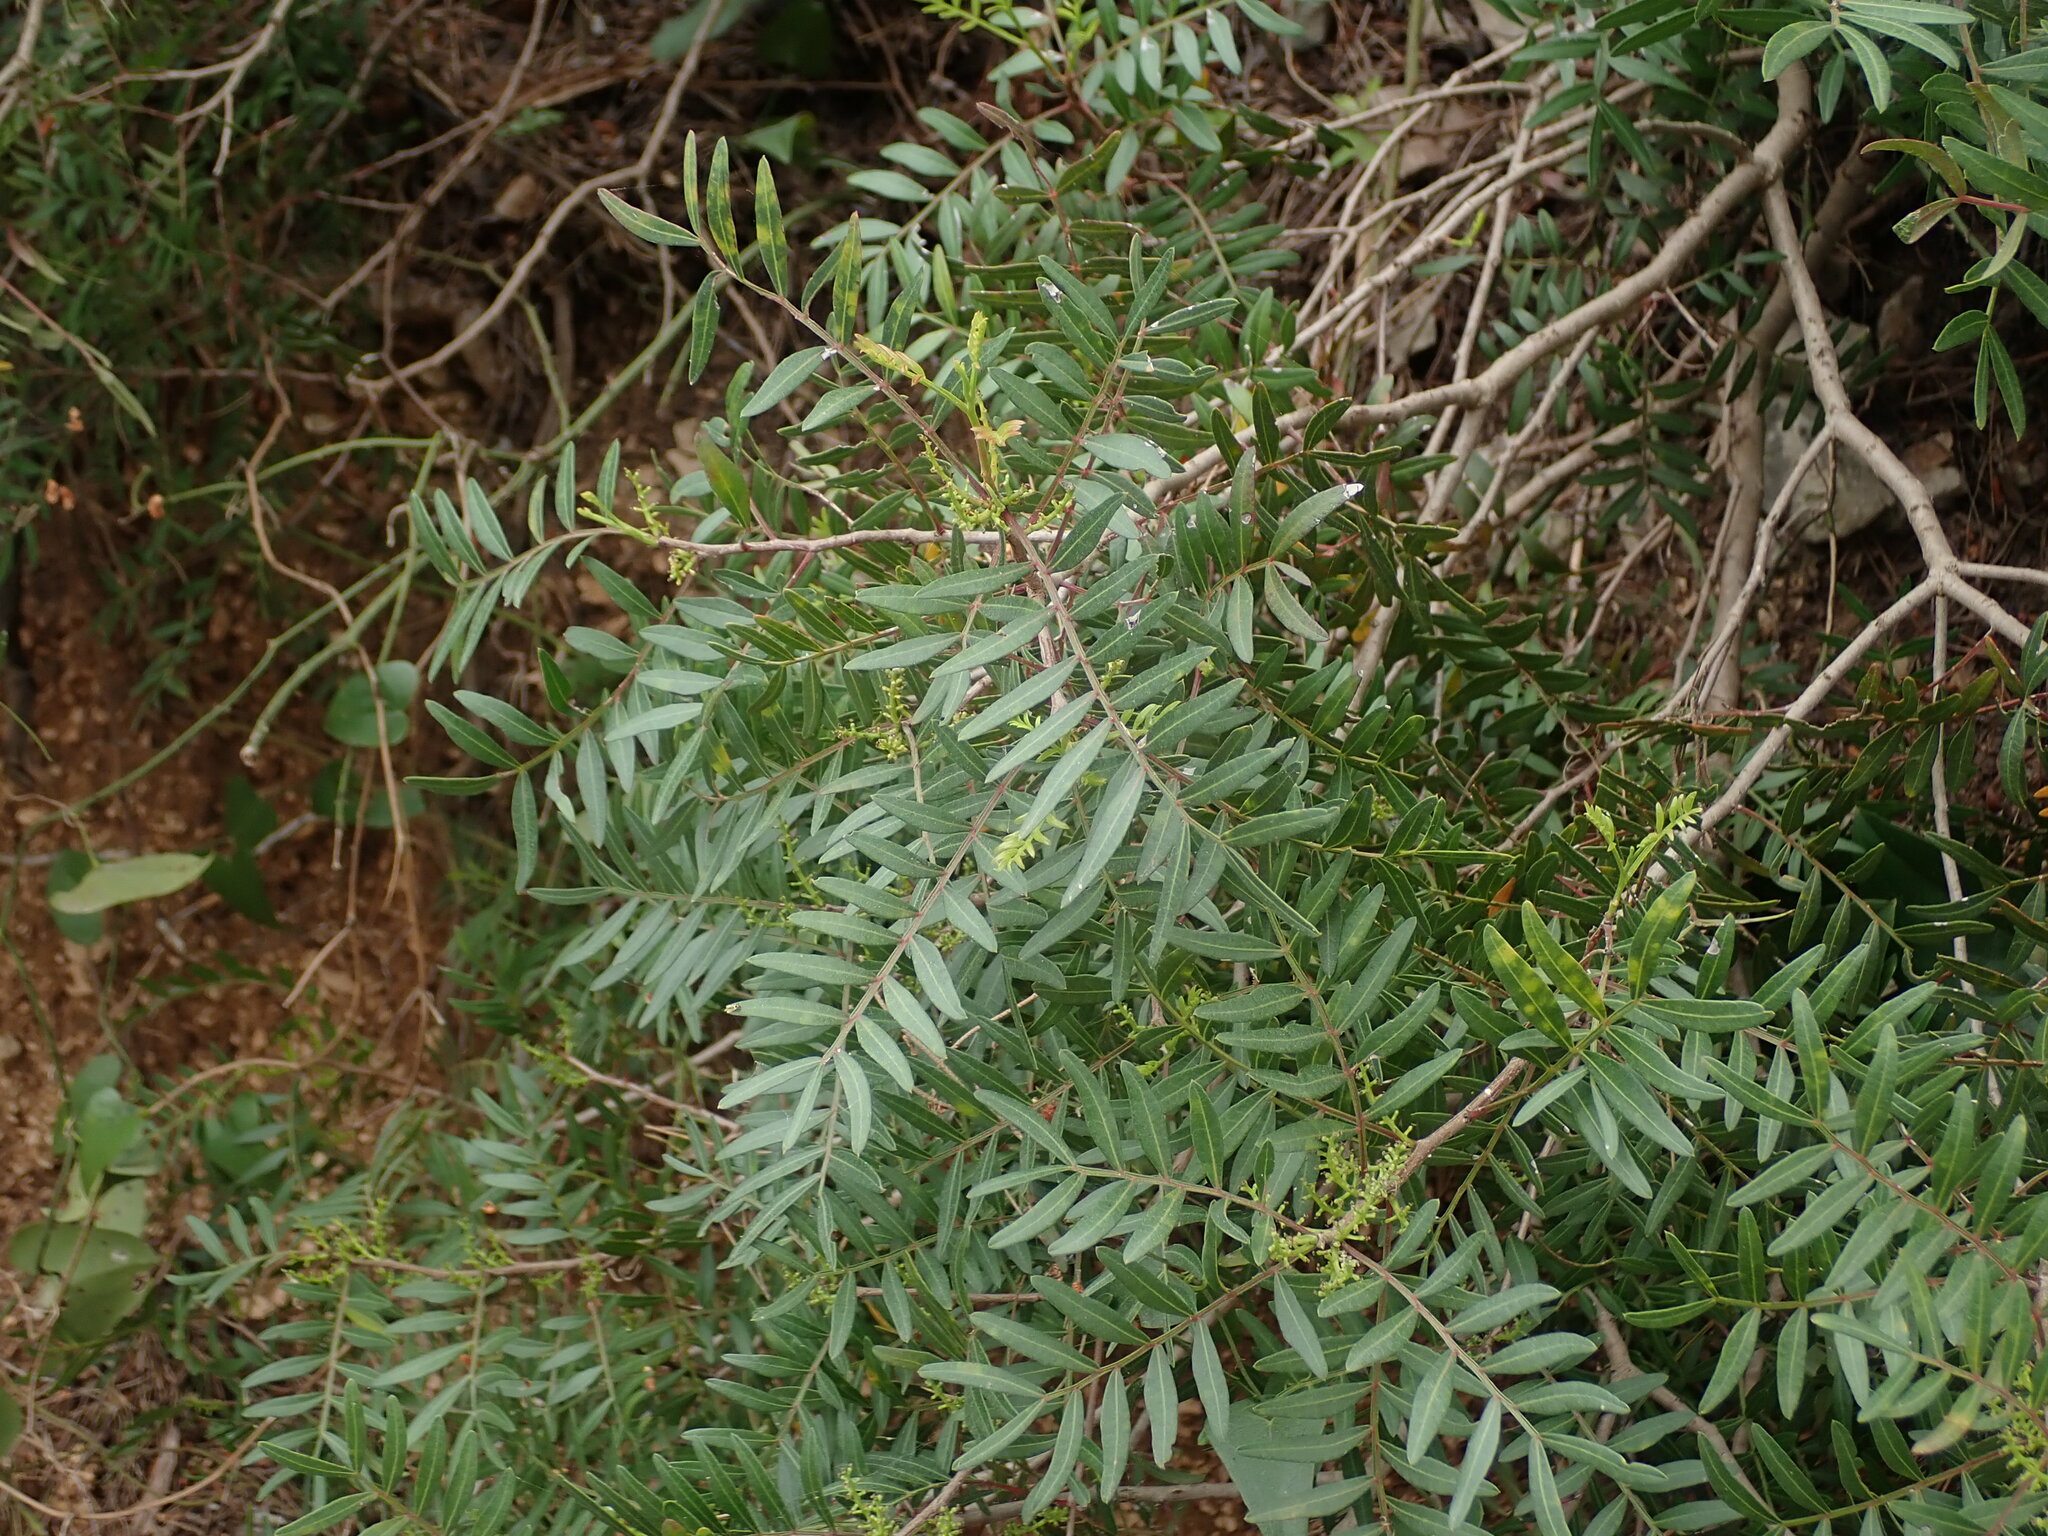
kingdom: Plantae
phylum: Tracheophyta
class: Magnoliopsida
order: Sapindales
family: Anacardiaceae
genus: Pistacia
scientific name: Pistacia lentiscus
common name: Lentisk
